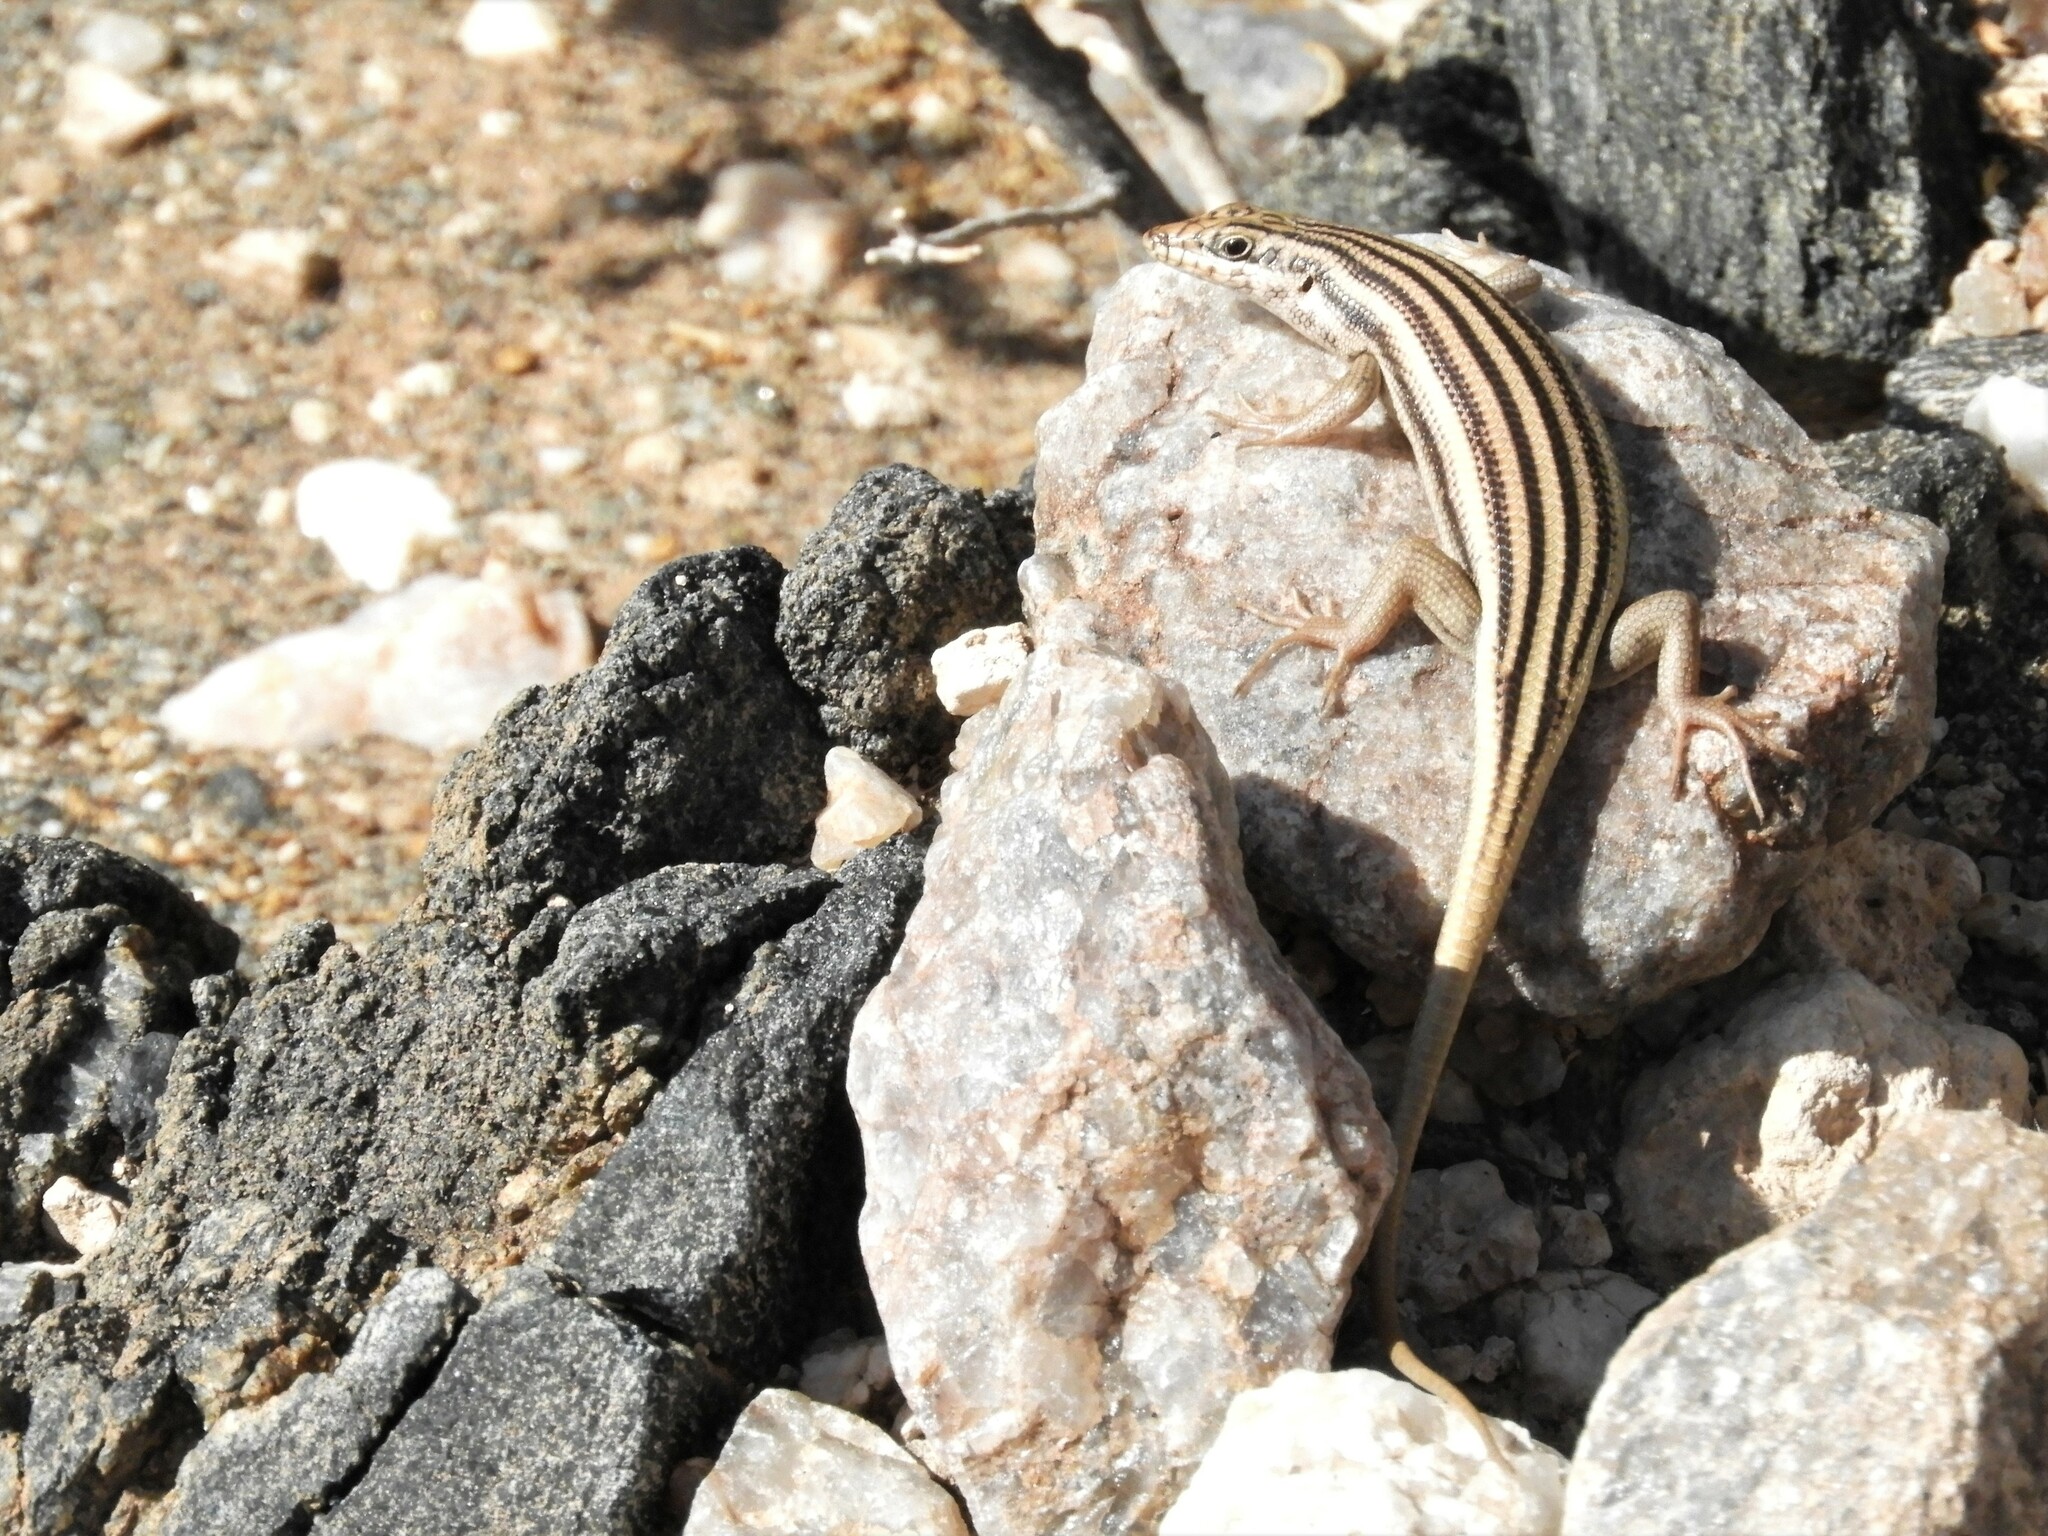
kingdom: Animalia
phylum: Chordata
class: Squamata
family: Scincidae
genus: Trachylepis
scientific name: Trachylepis sulcata
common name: Western rock skink
